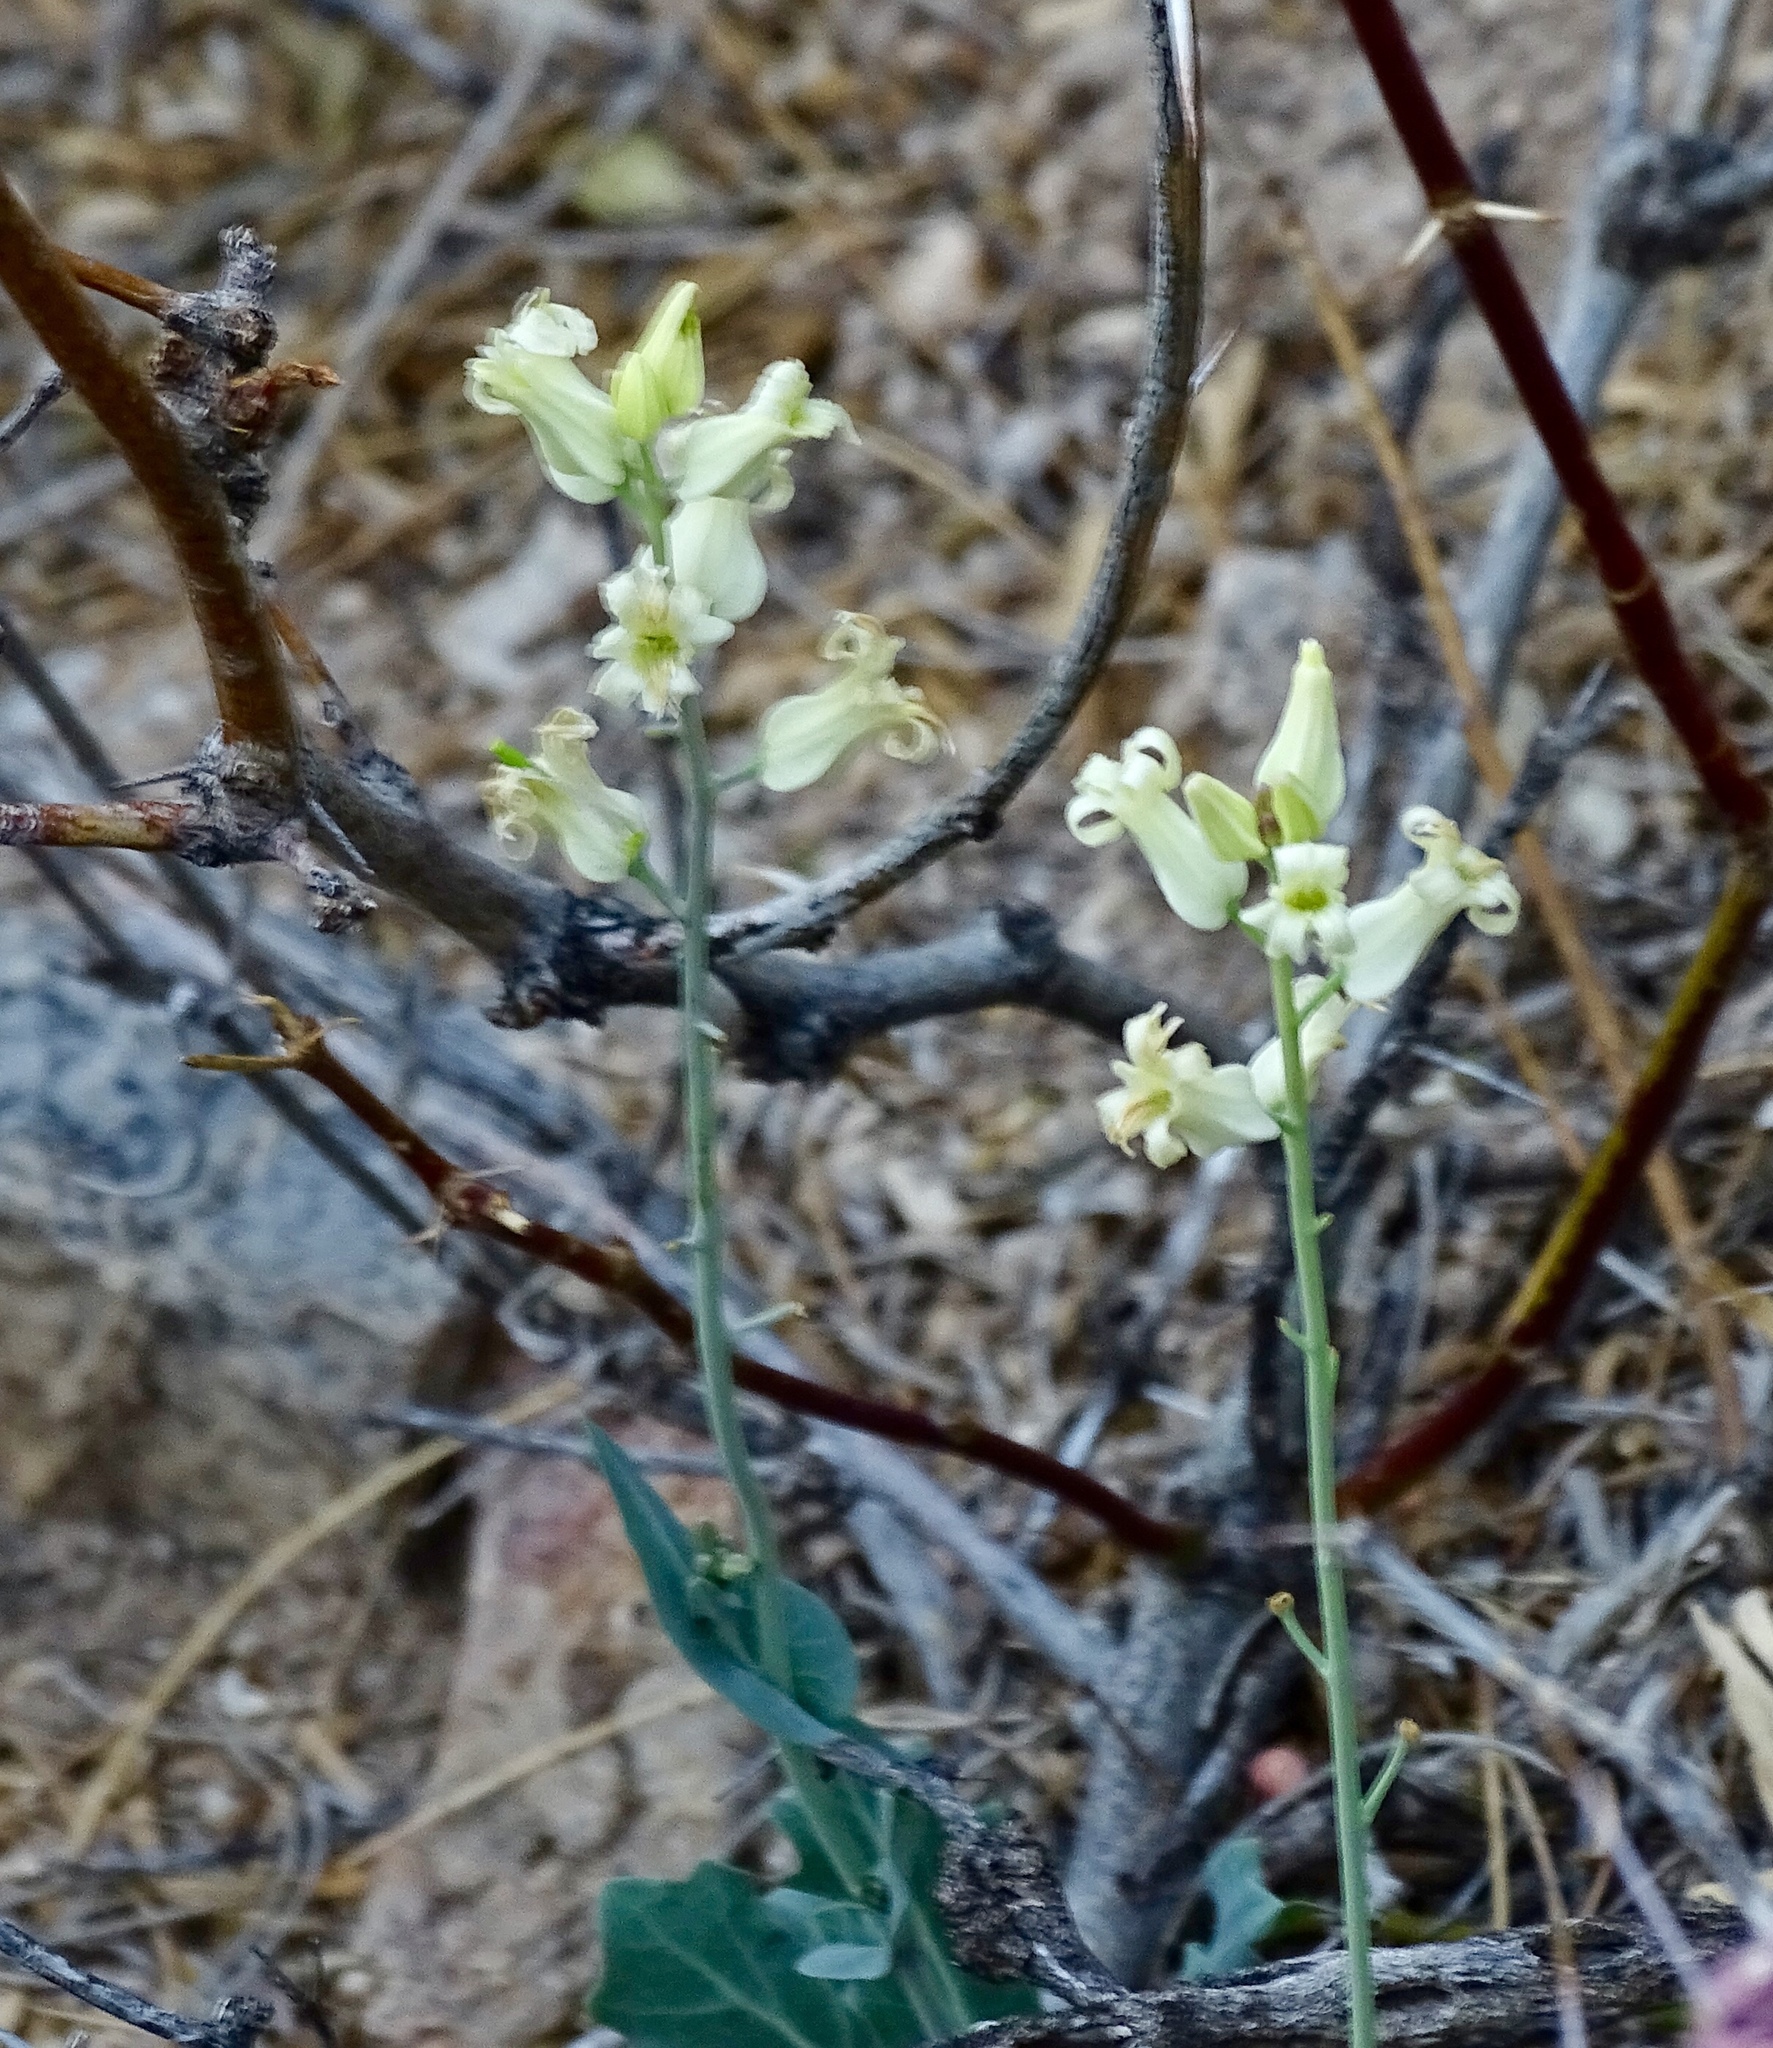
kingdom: Plantae
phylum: Tracheophyta
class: Magnoliopsida
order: Brassicales
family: Brassicaceae
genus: Streptanthus
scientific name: Streptanthus carinatus
